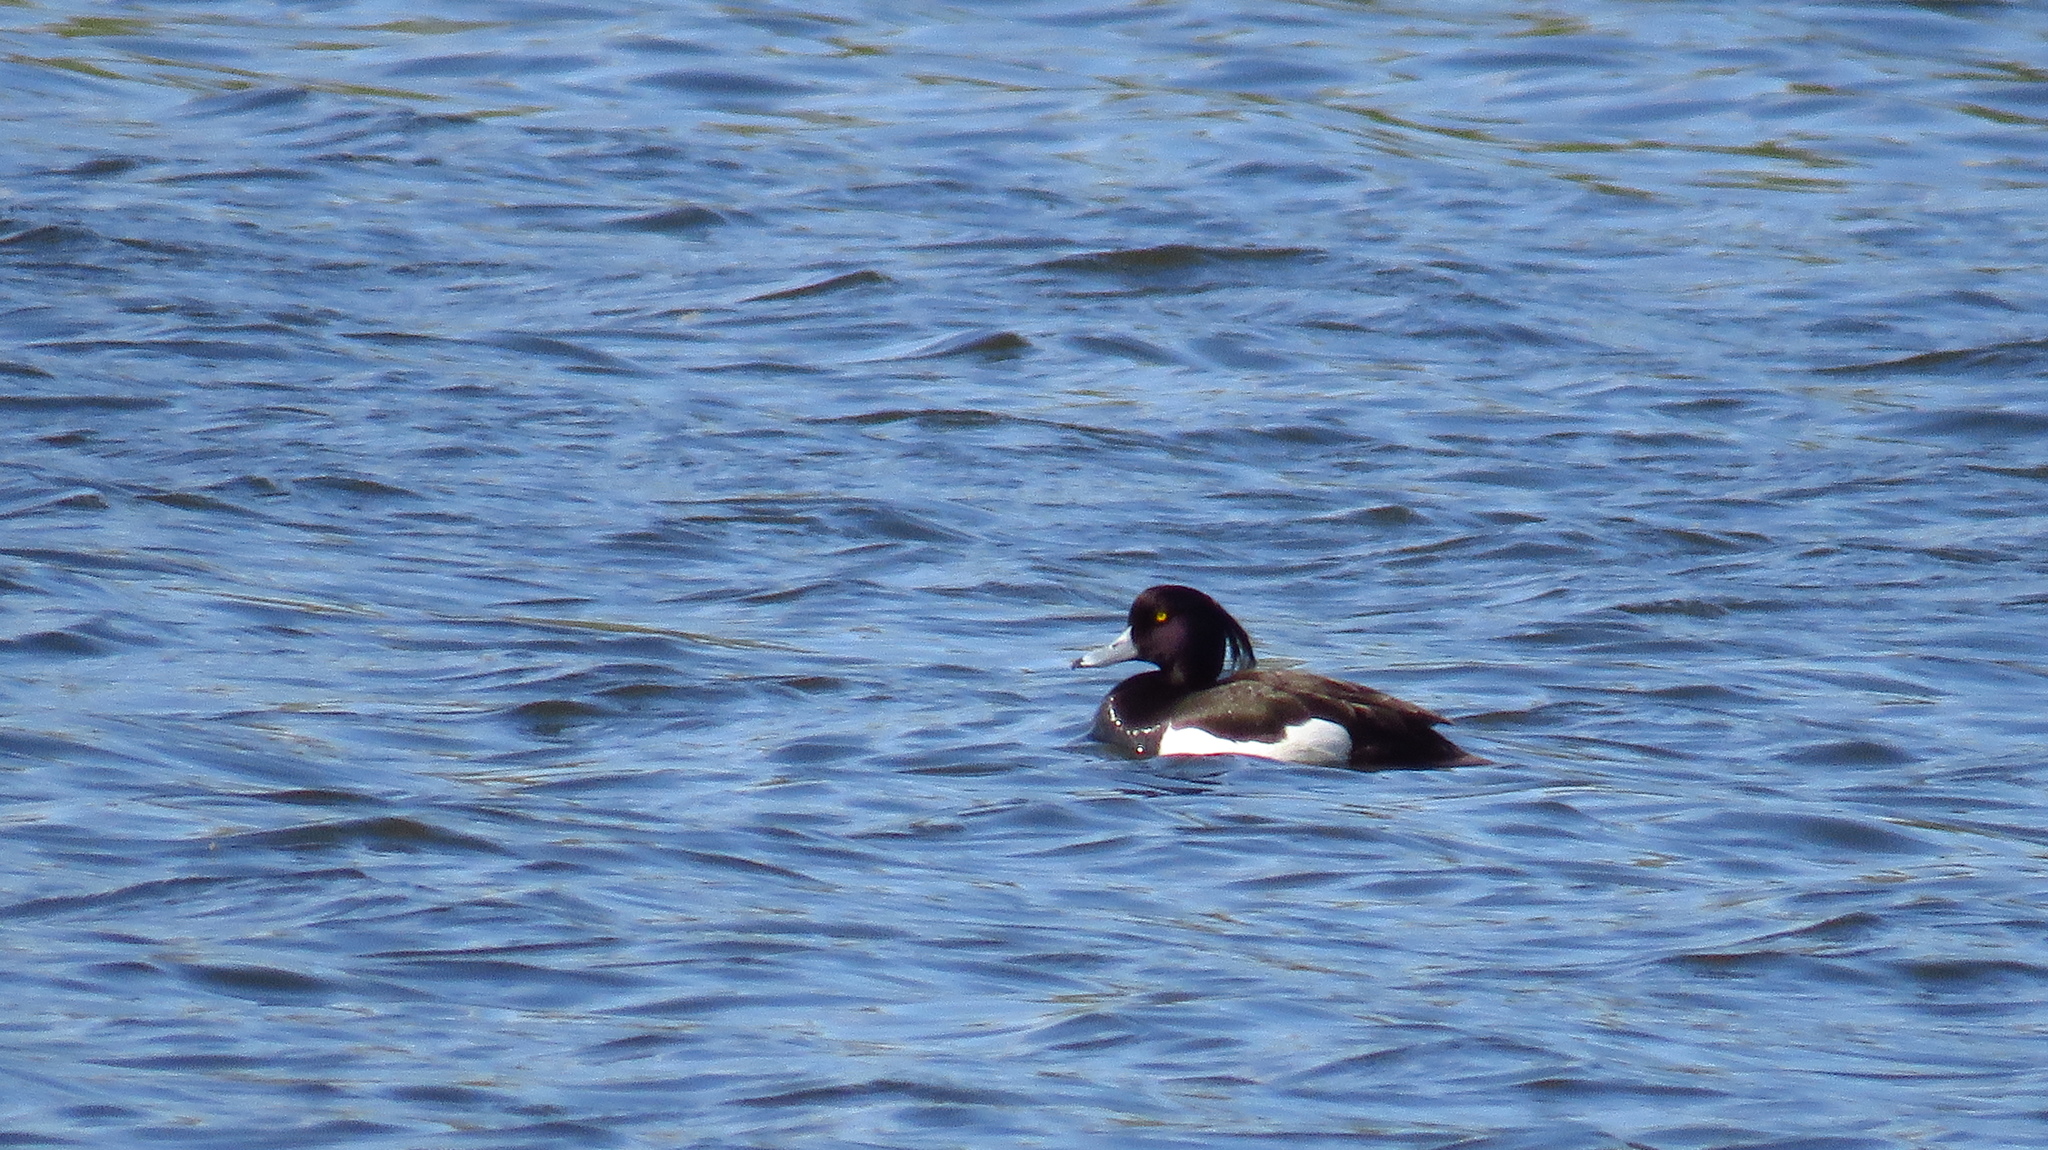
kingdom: Animalia
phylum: Chordata
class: Aves
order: Anseriformes
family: Anatidae
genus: Aythya
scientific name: Aythya fuligula
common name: Tufted duck
